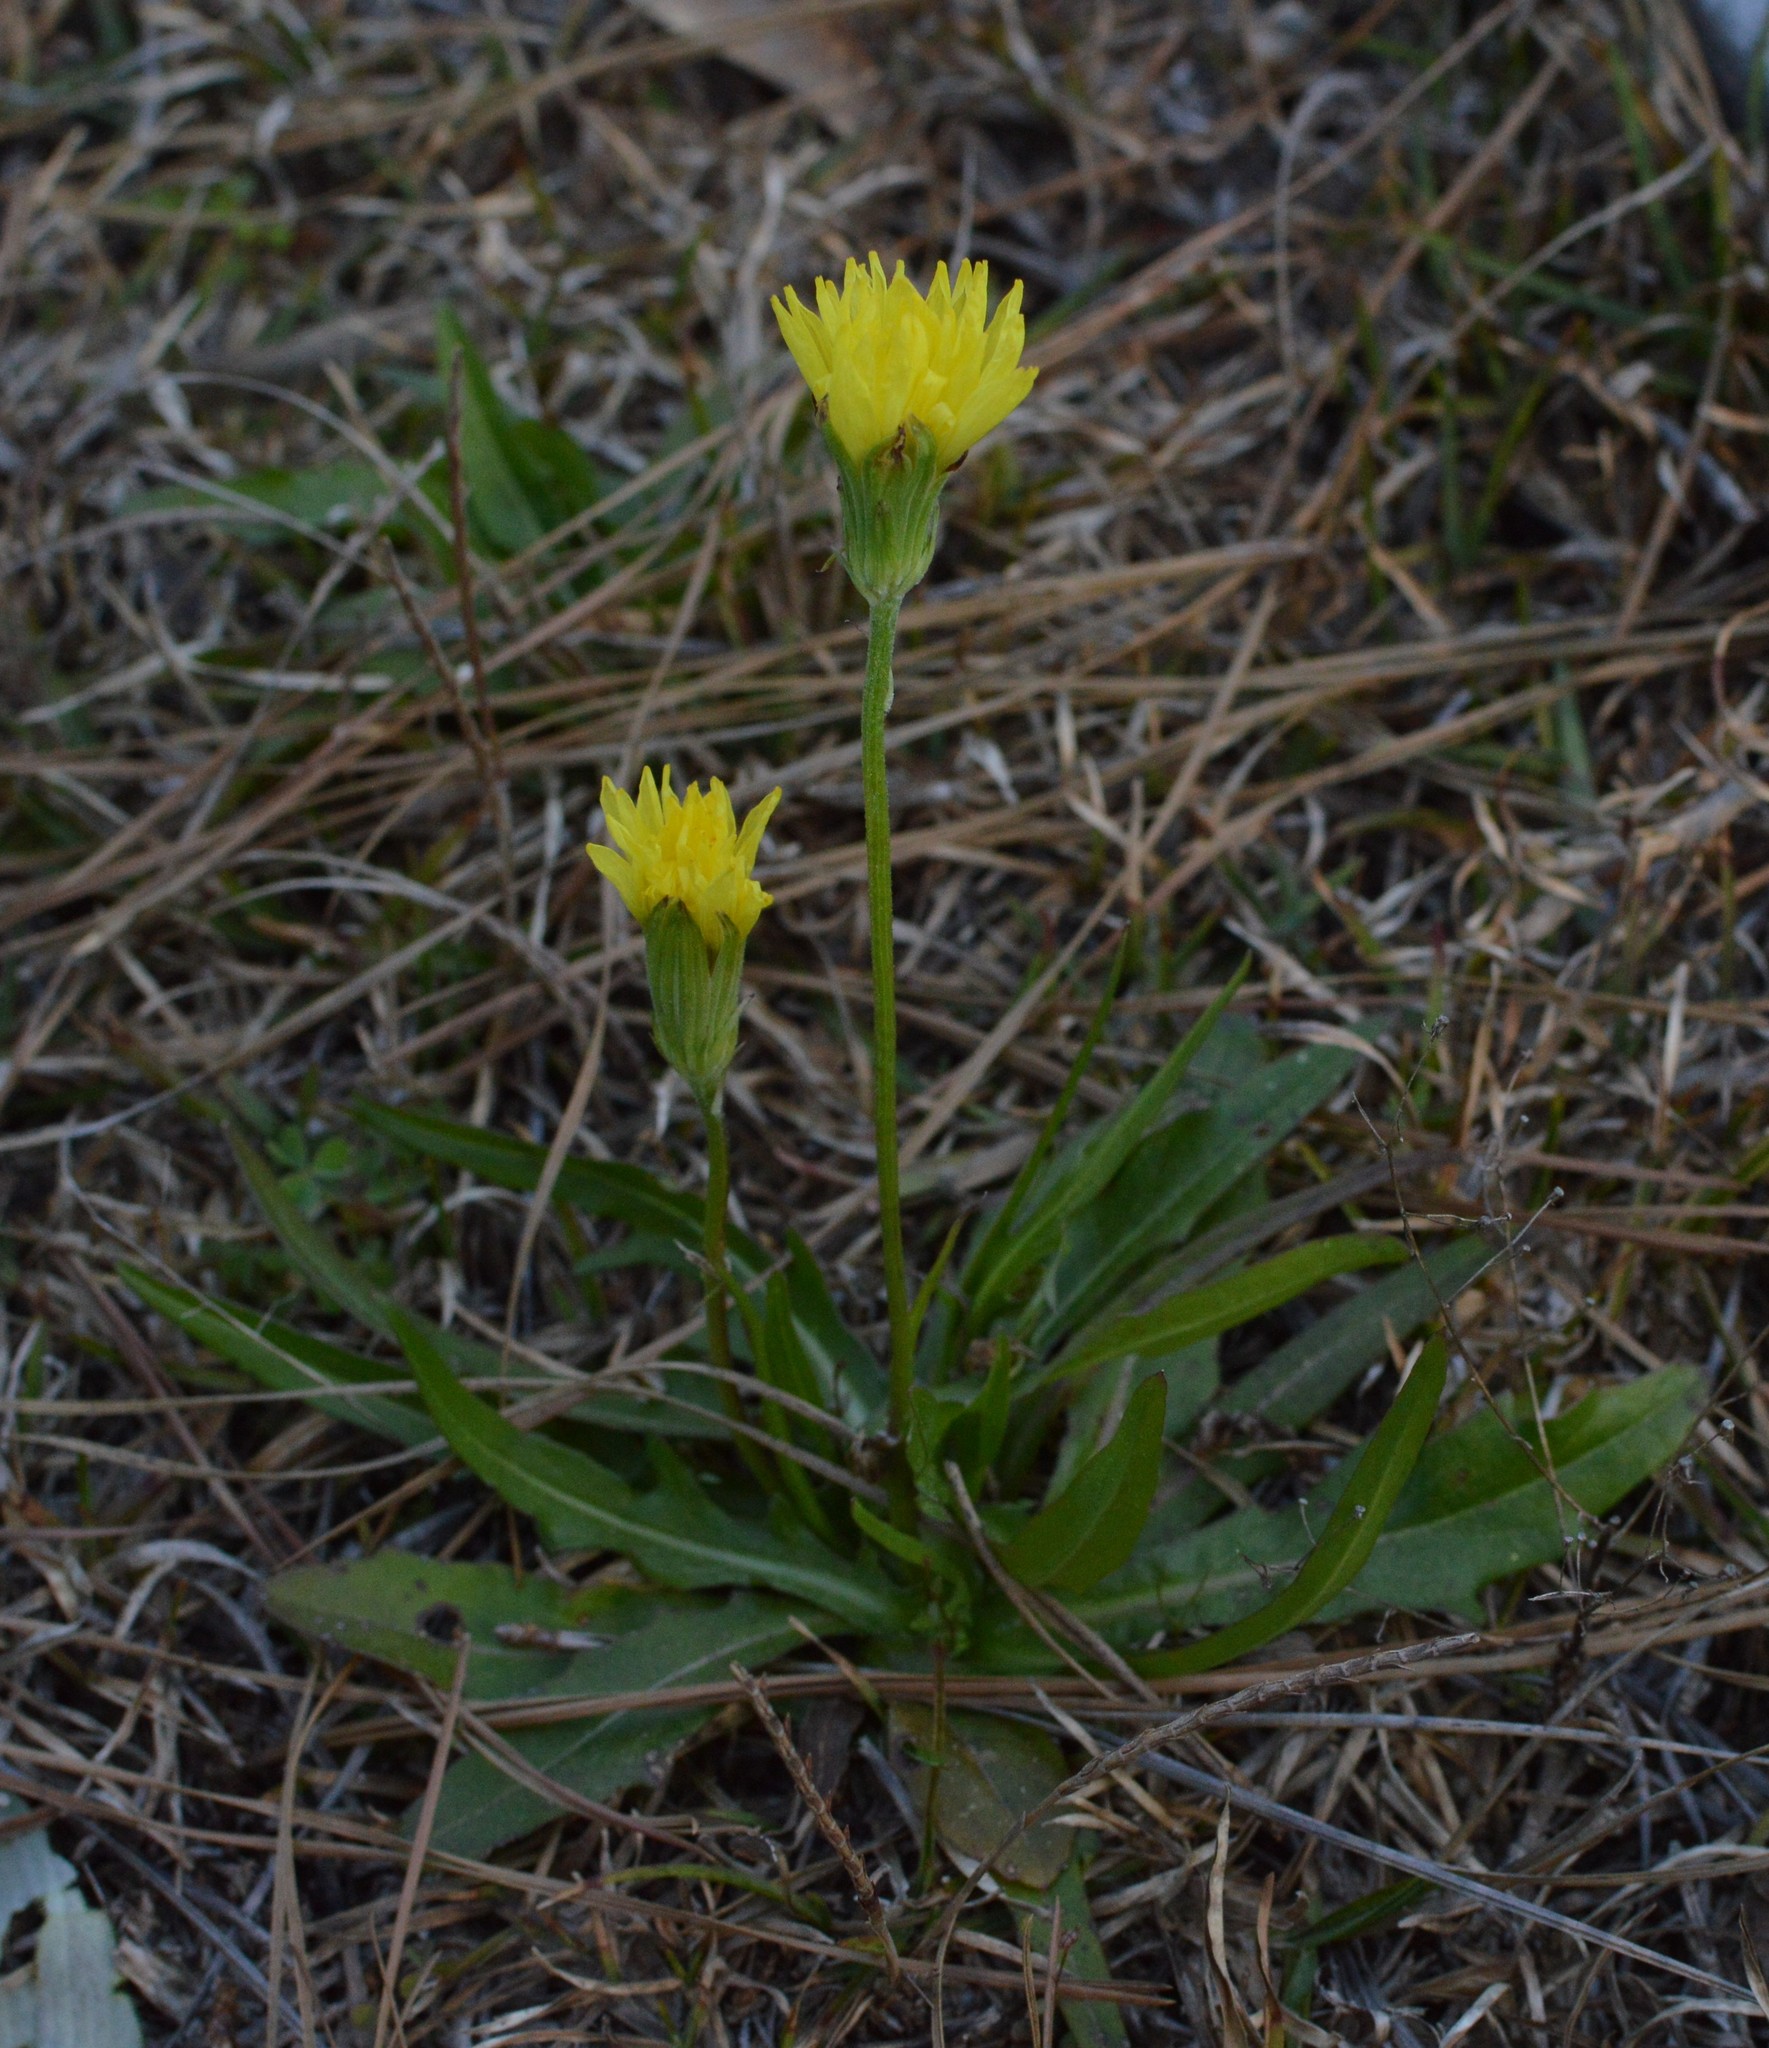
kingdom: Plantae
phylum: Tracheophyta
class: Magnoliopsida
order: Asterales
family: Asteraceae
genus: Pyrrhopappus
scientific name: Pyrrhopappus carolinianus
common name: Carolina desert-chicory
